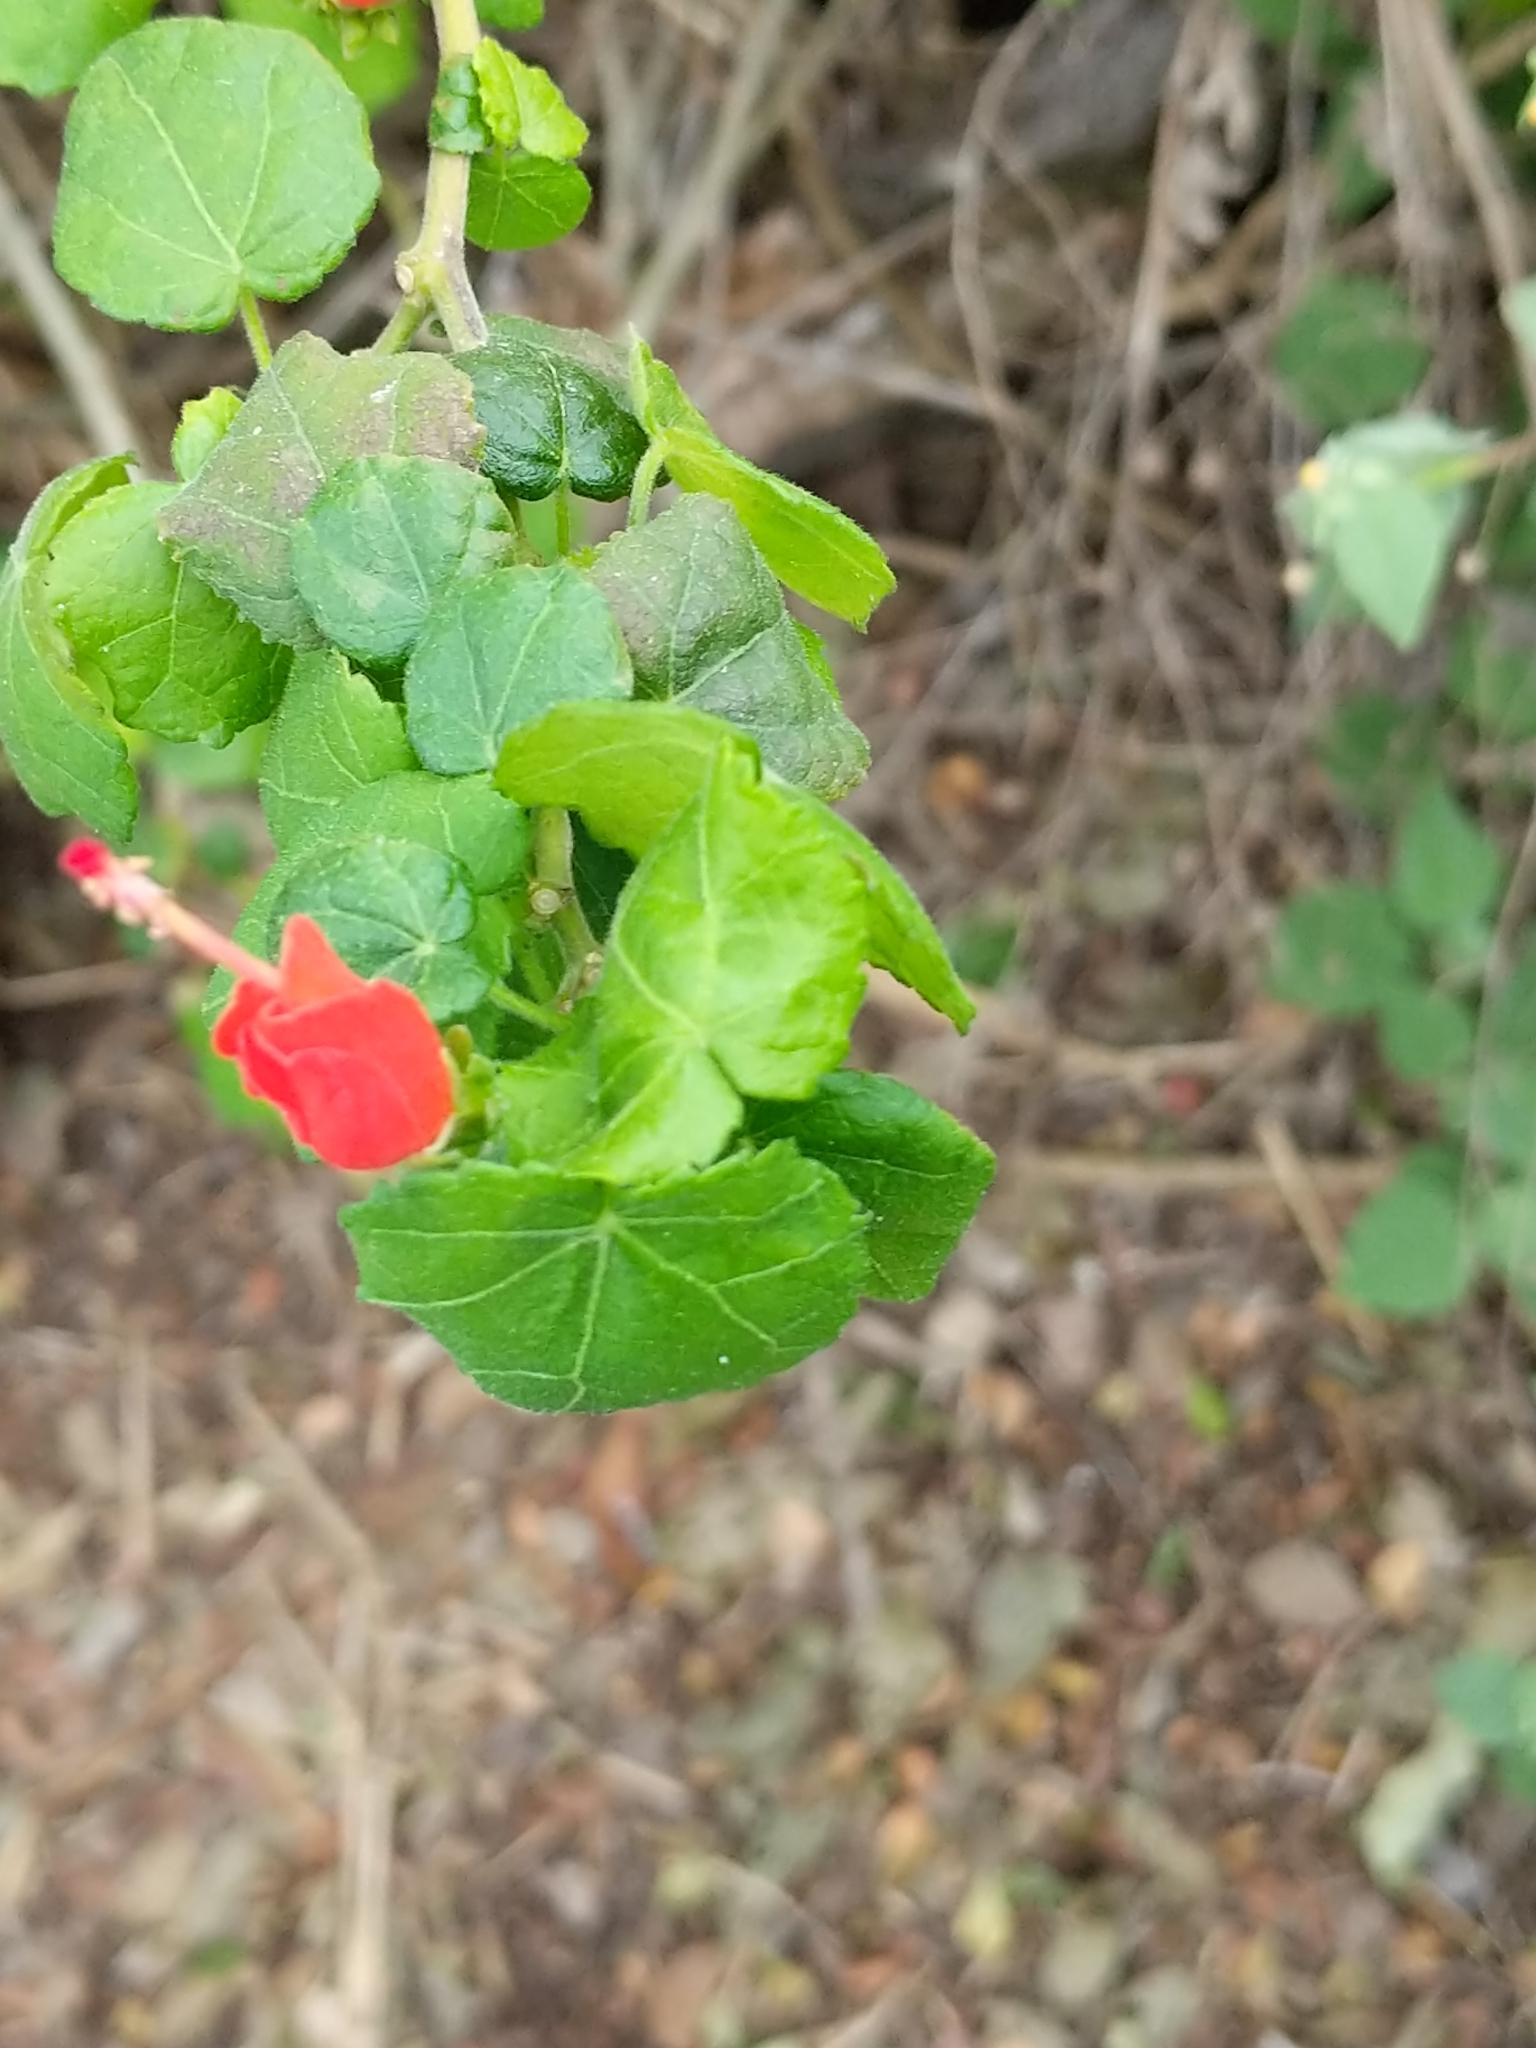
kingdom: Plantae
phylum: Tracheophyta
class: Magnoliopsida
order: Malvales
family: Malvaceae
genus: Malvaviscus
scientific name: Malvaviscus arboreus
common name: Wax mallow
